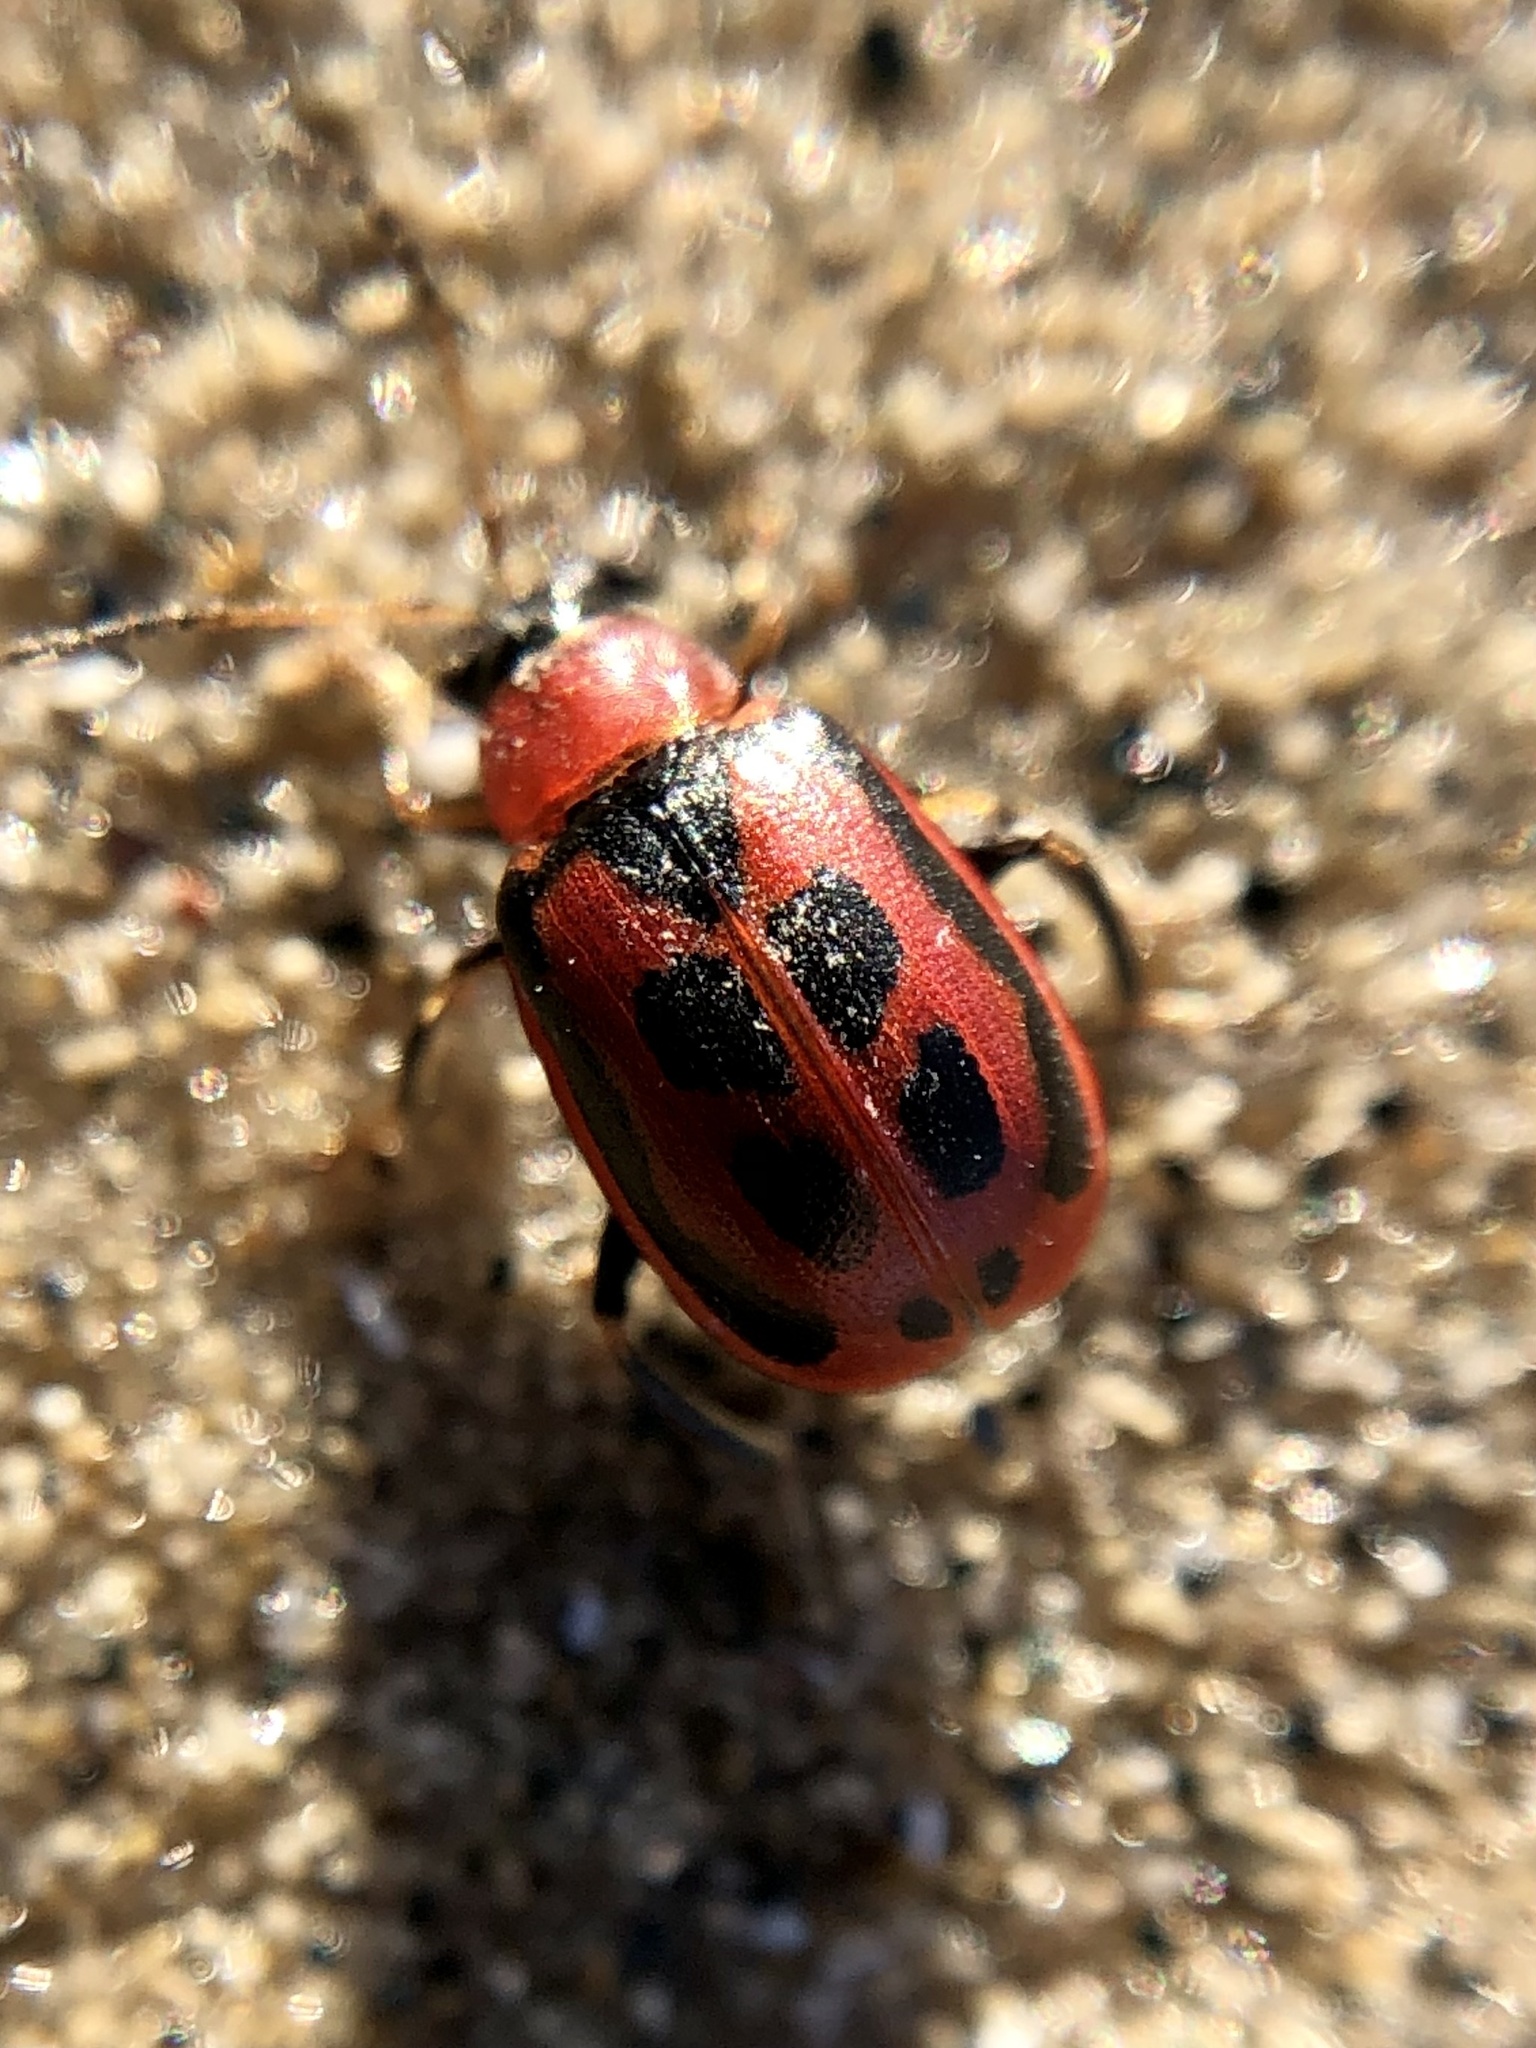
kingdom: Animalia
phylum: Arthropoda
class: Insecta
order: Coleoptera
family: Chrysomelidae
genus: Cerotoma
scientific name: Cerotoma trifurcata
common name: Bean leaf beetle
